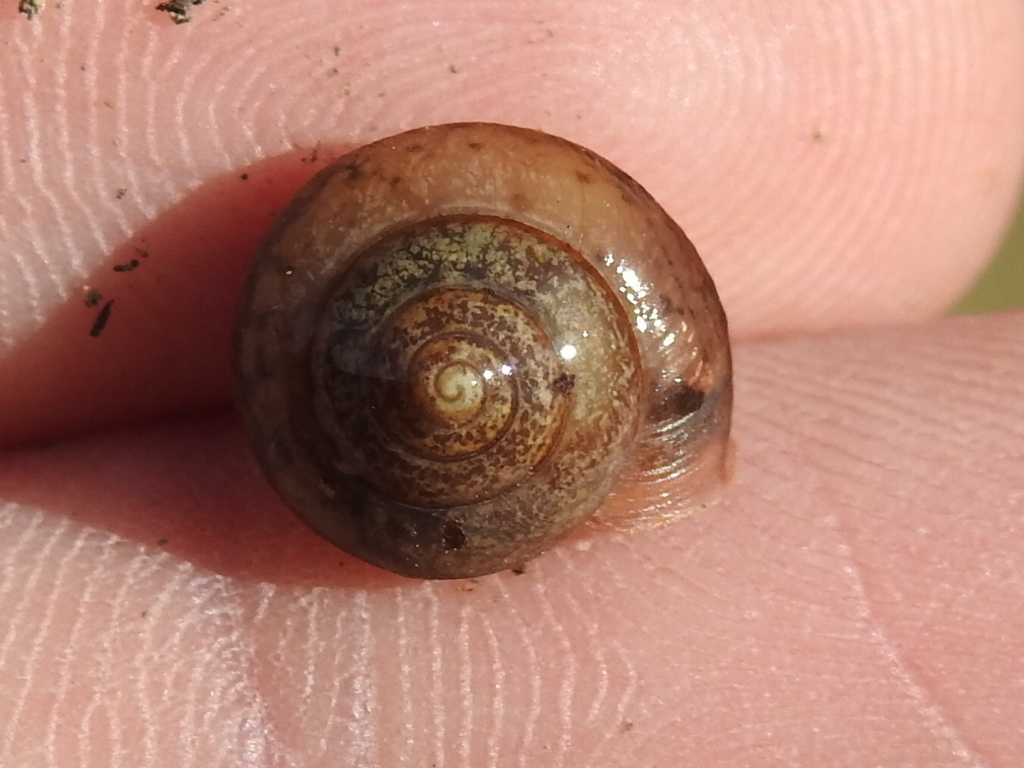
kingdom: Animalia
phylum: Mollusca
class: Gastropoda
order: Stylommatophora
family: Camaenidae
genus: Bradybaena
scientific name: Bradybaena similaris
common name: Asian trampsnail
